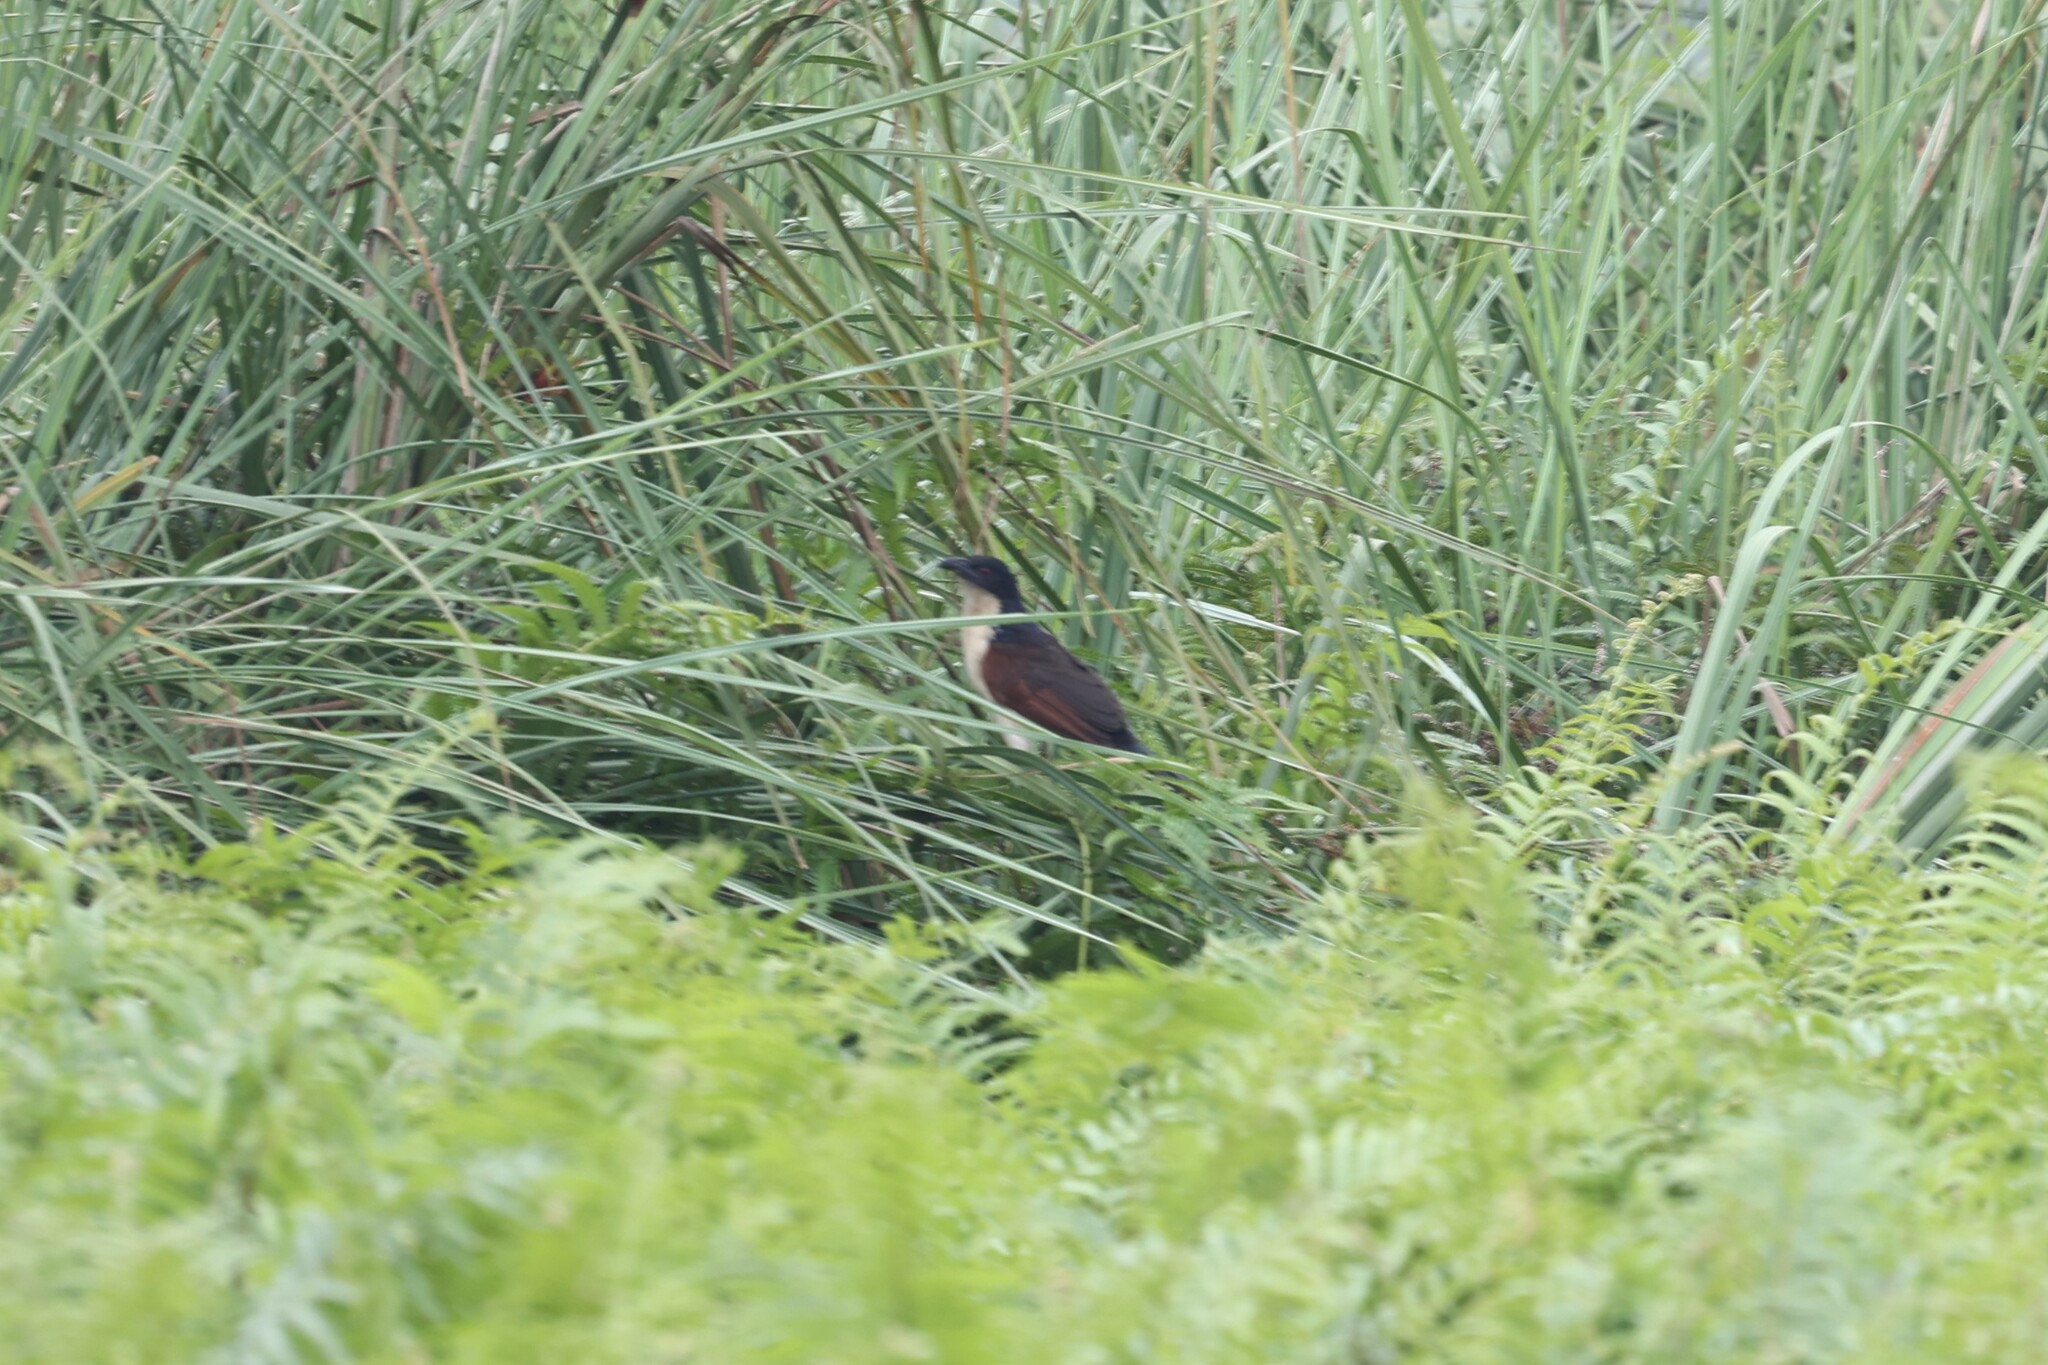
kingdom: Animalia
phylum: Chordata
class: Aves
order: Cuculiformes
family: Cuculidae
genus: Centropus
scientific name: Centropus monachus
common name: Blue-headed coucal
